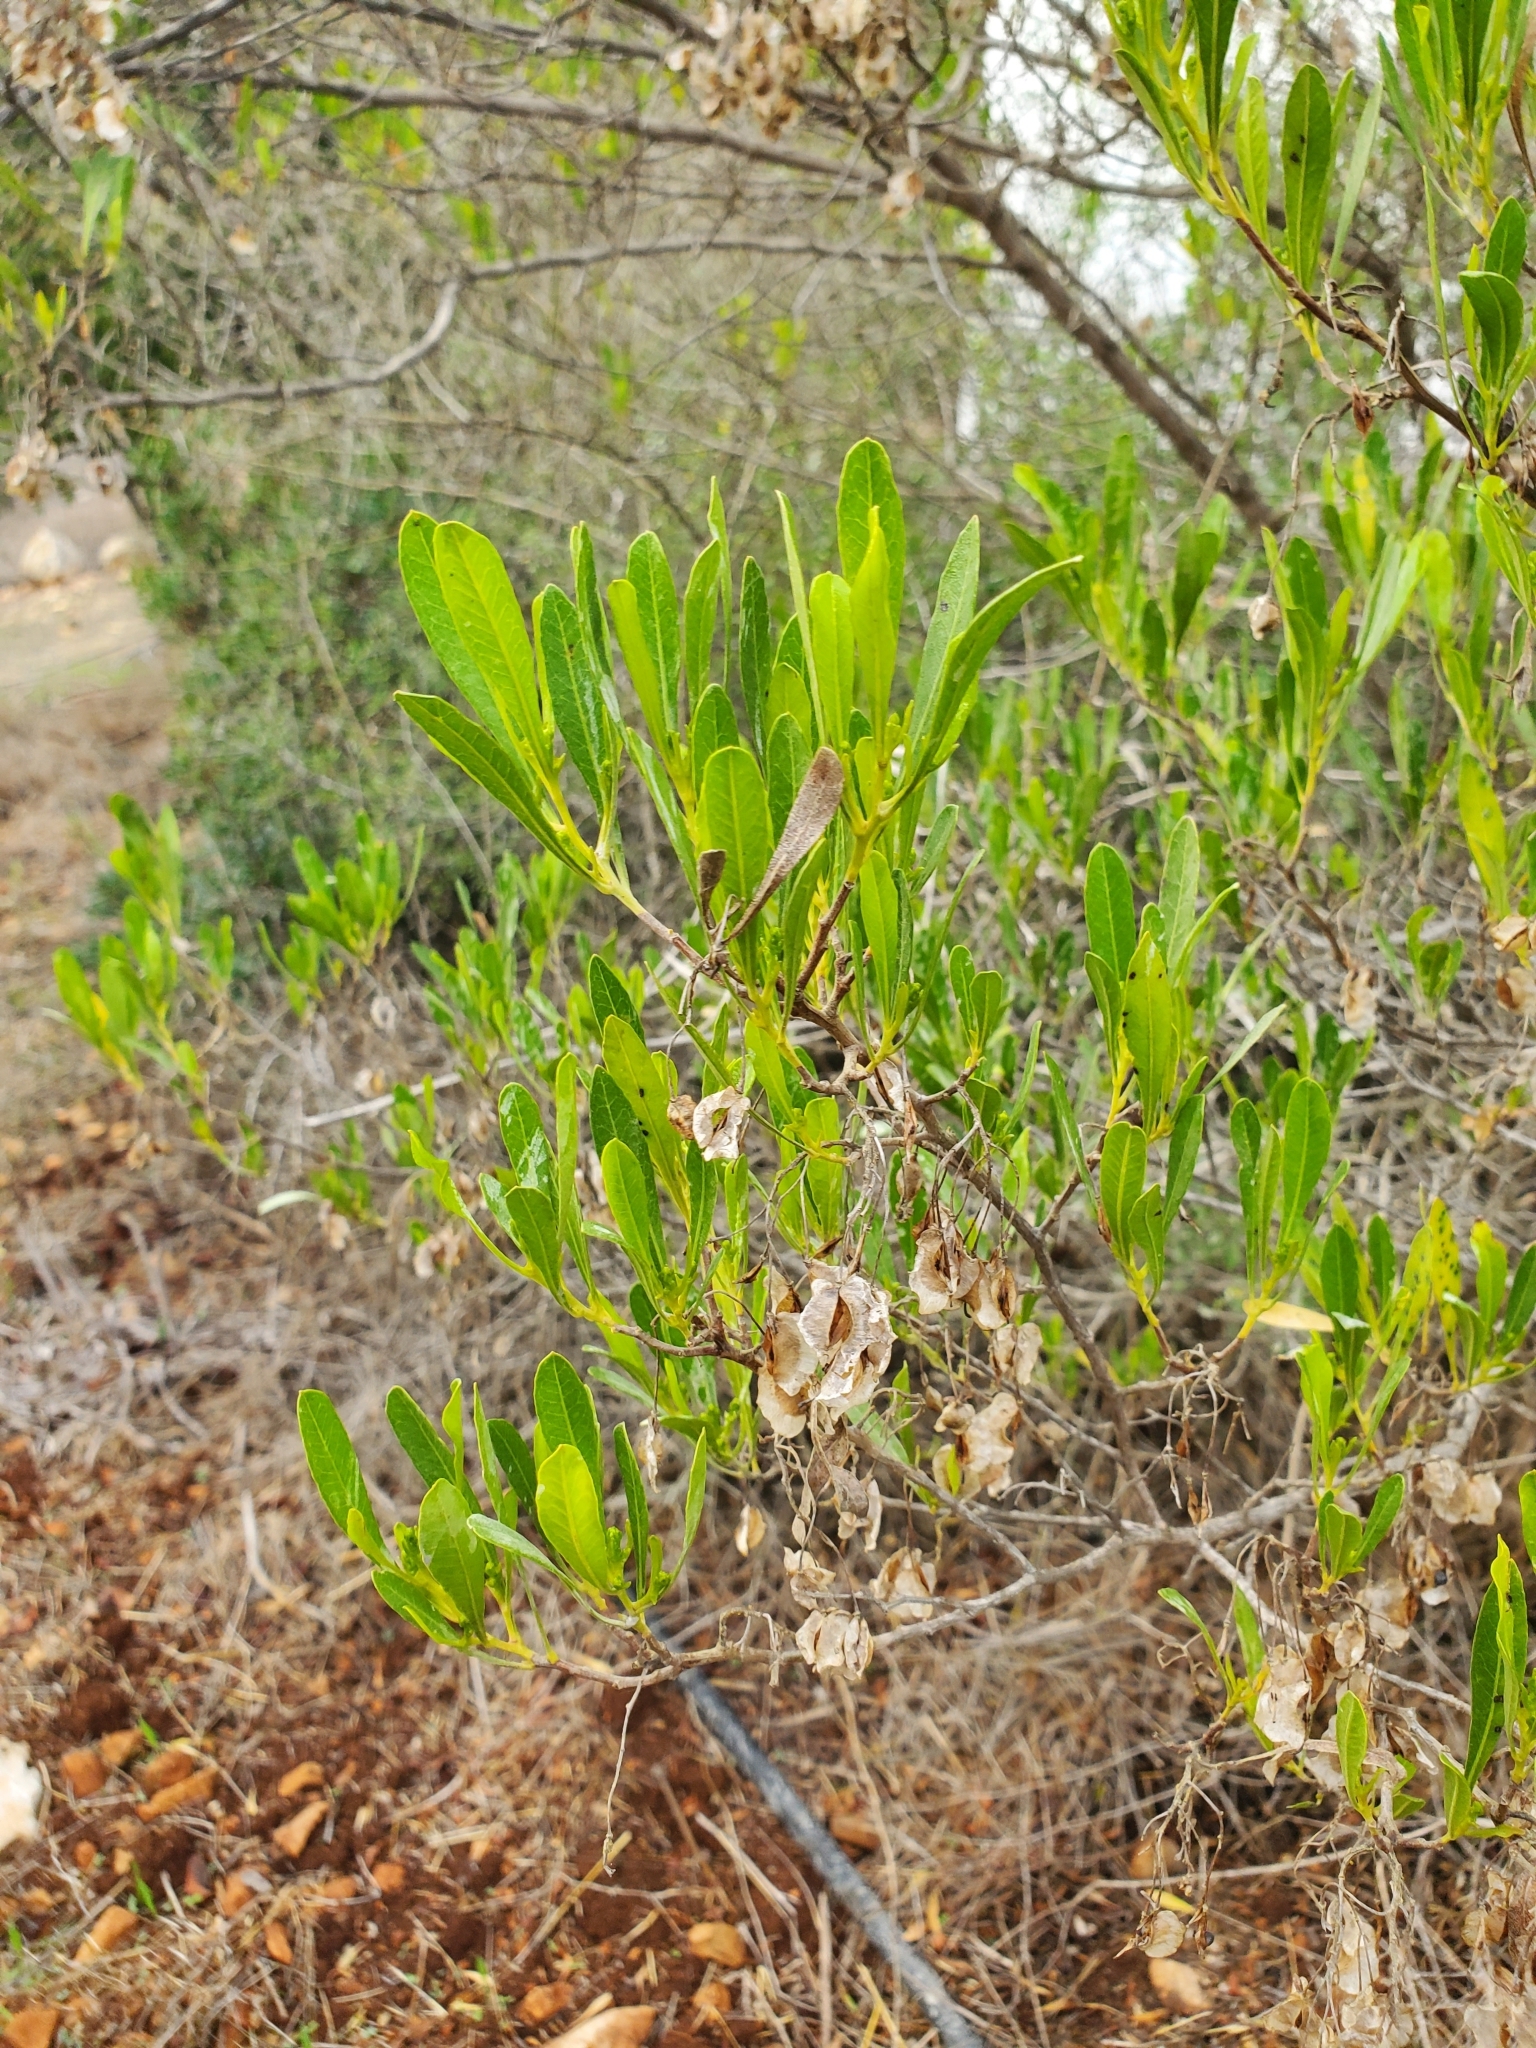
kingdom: Plantae
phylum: Tracheophyta
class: Magnoliopsida
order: Sapindales
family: Sapindaceae
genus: Dodonaea
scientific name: Dodonaea viscosa
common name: Hopbush
